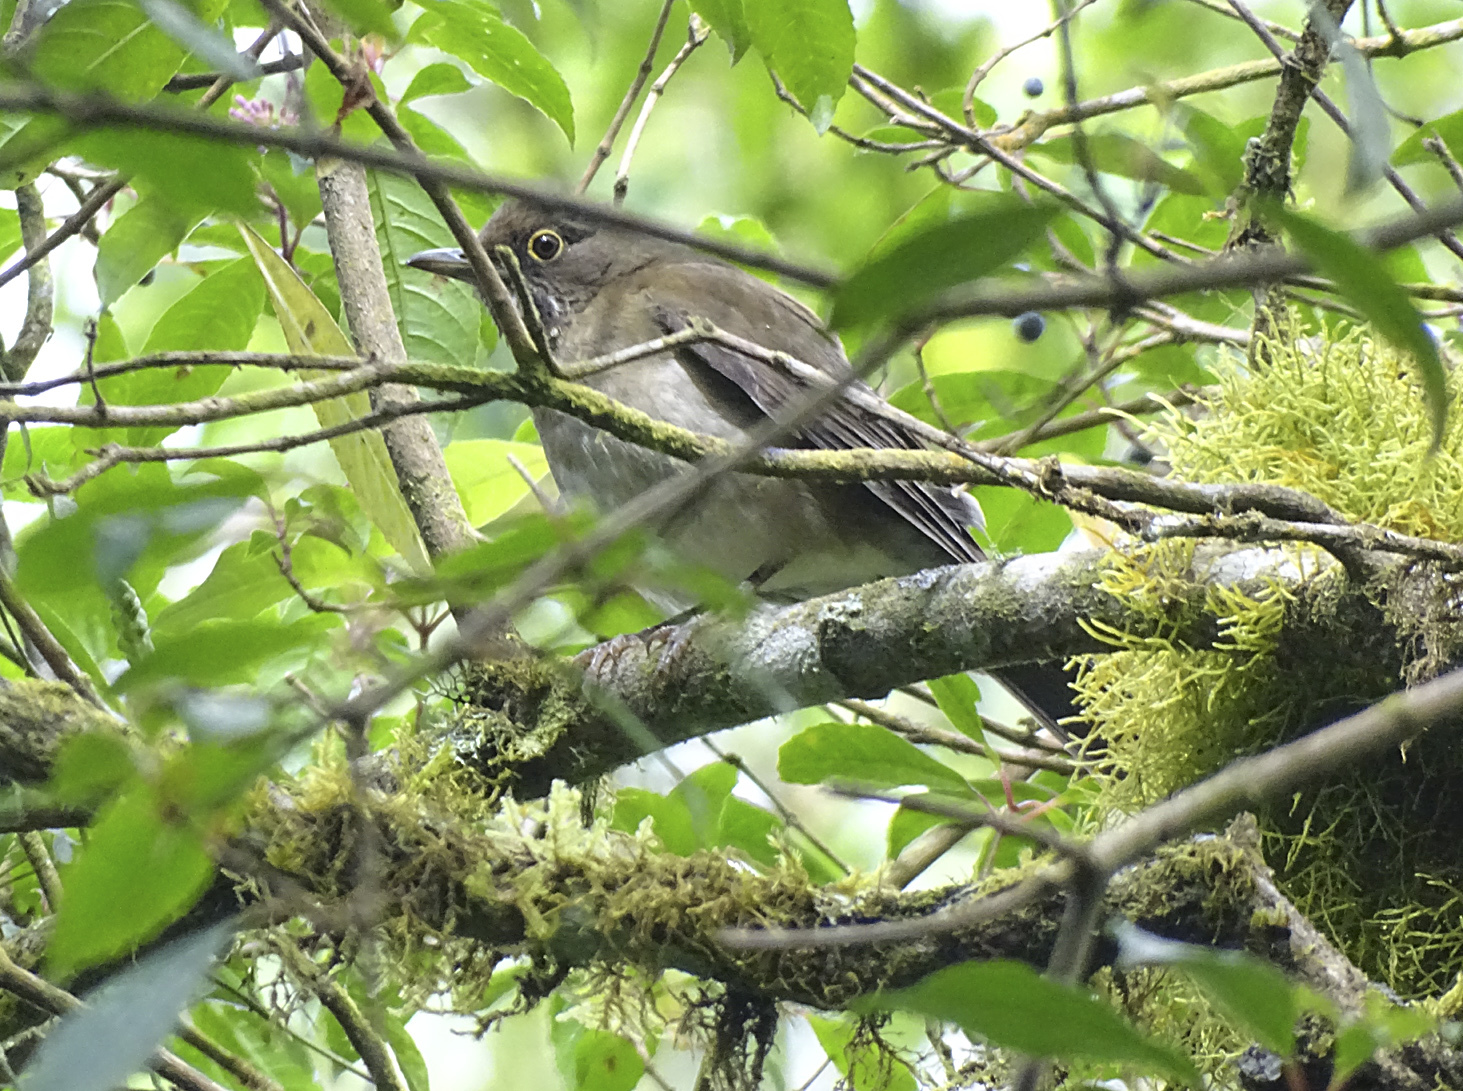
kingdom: Animalia
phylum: Chordata
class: Aves
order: Passeriformes
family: Turdidae
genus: Turdus
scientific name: Turdus assimilis
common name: White-throated thrush
